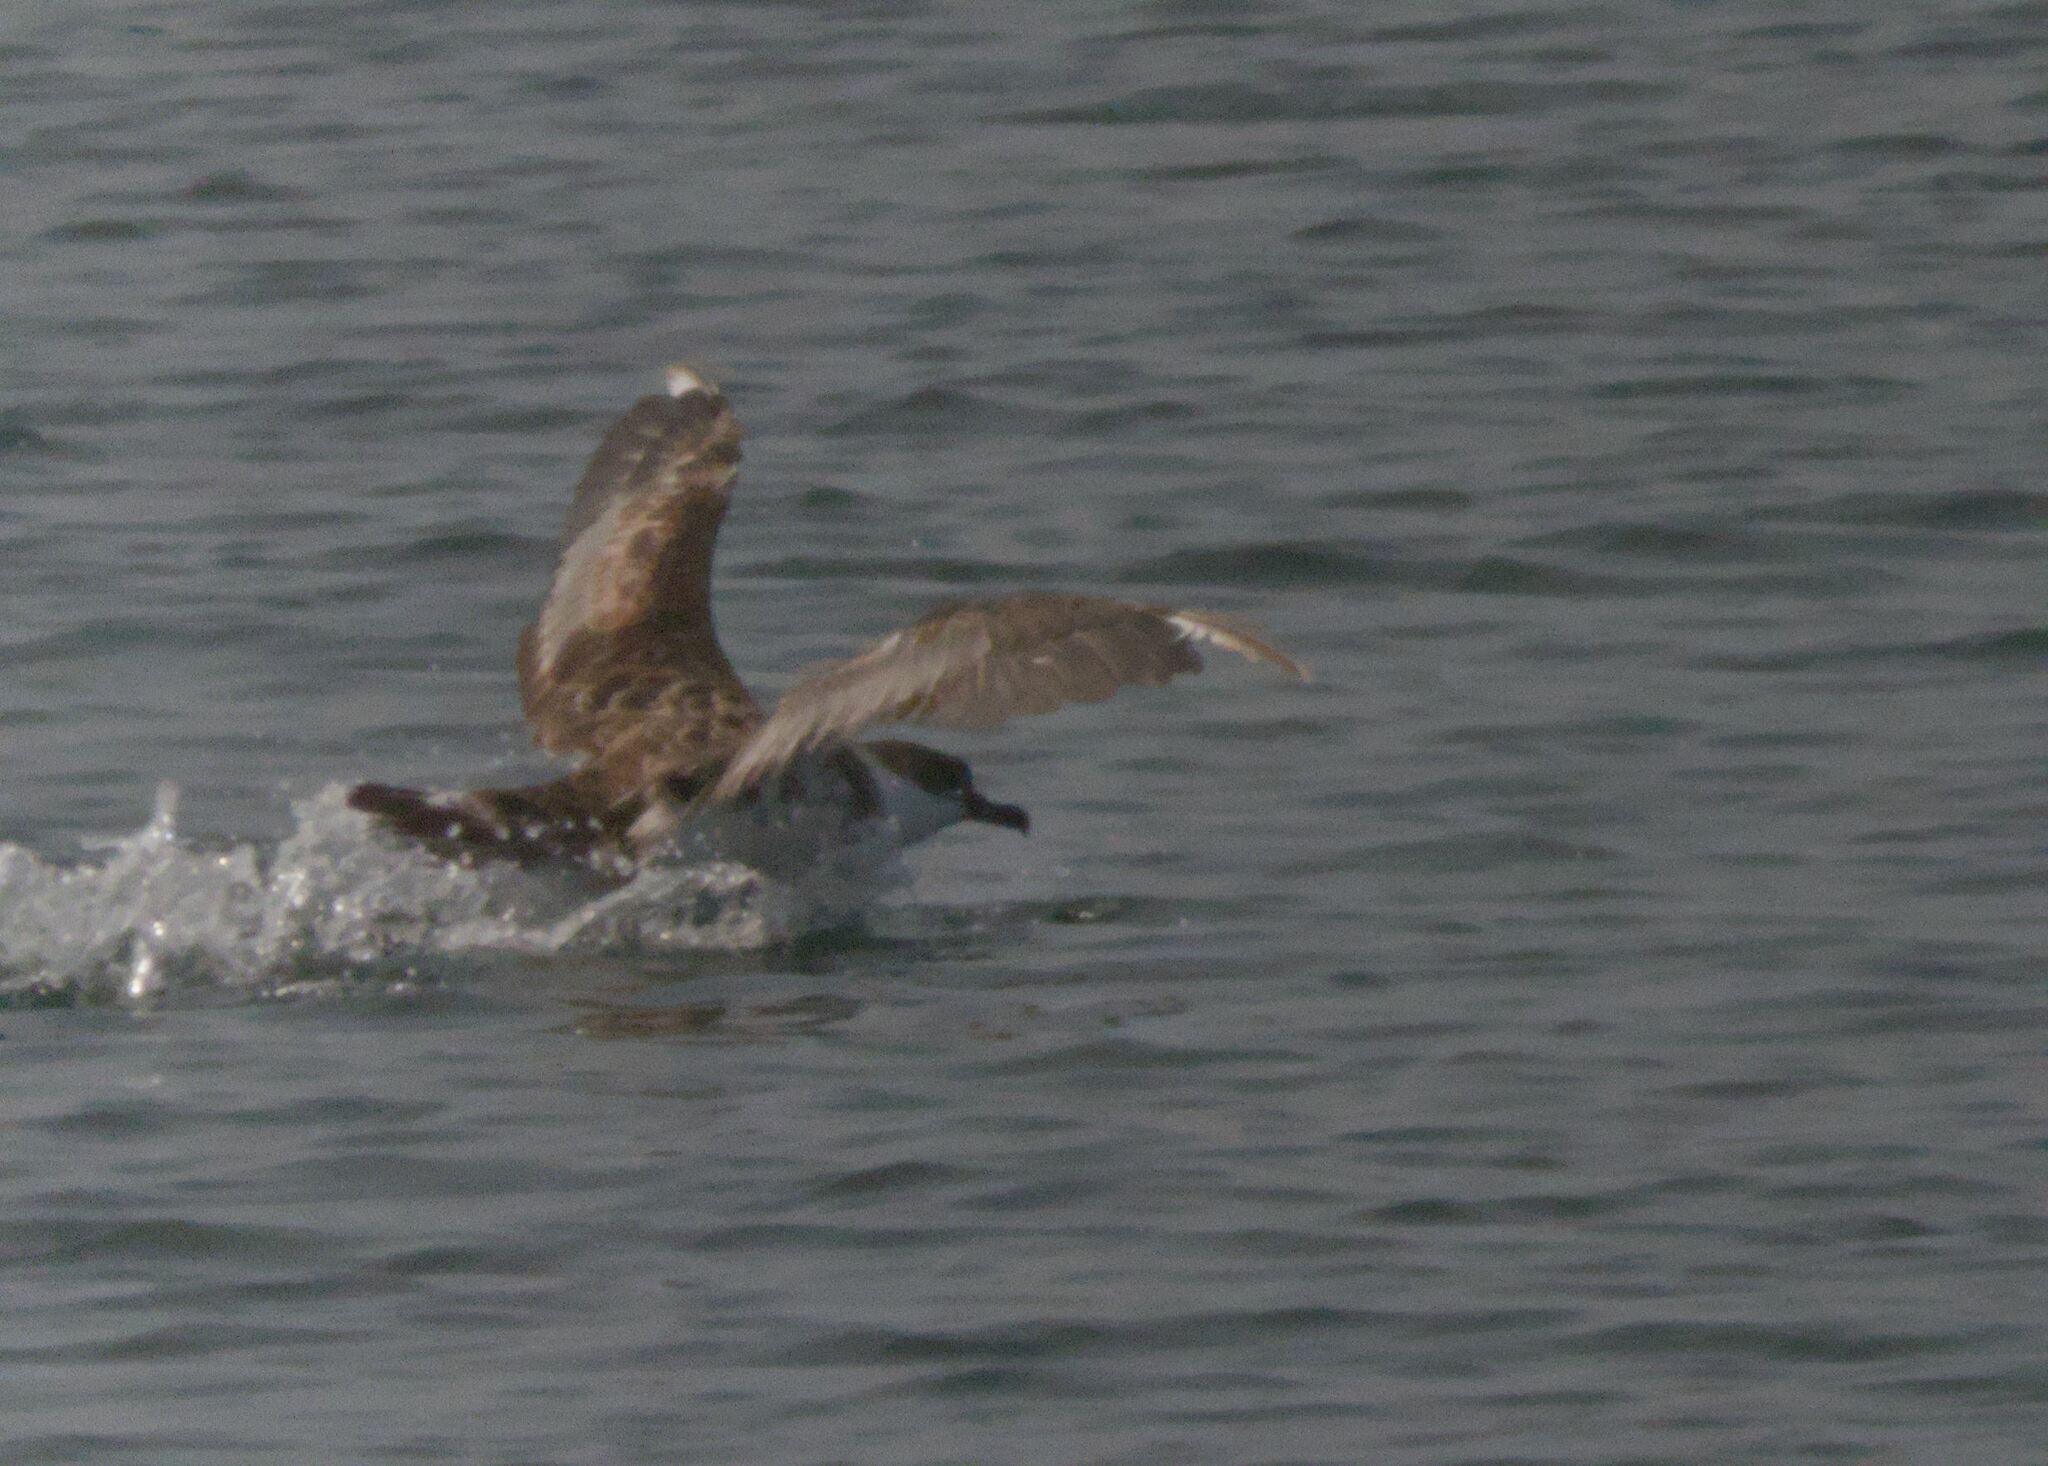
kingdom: Animalia
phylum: Chordata
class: Aves
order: Procellariiformes
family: Procellariidae
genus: Puffinus
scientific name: Puffinus gravis
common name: Great shearwater
